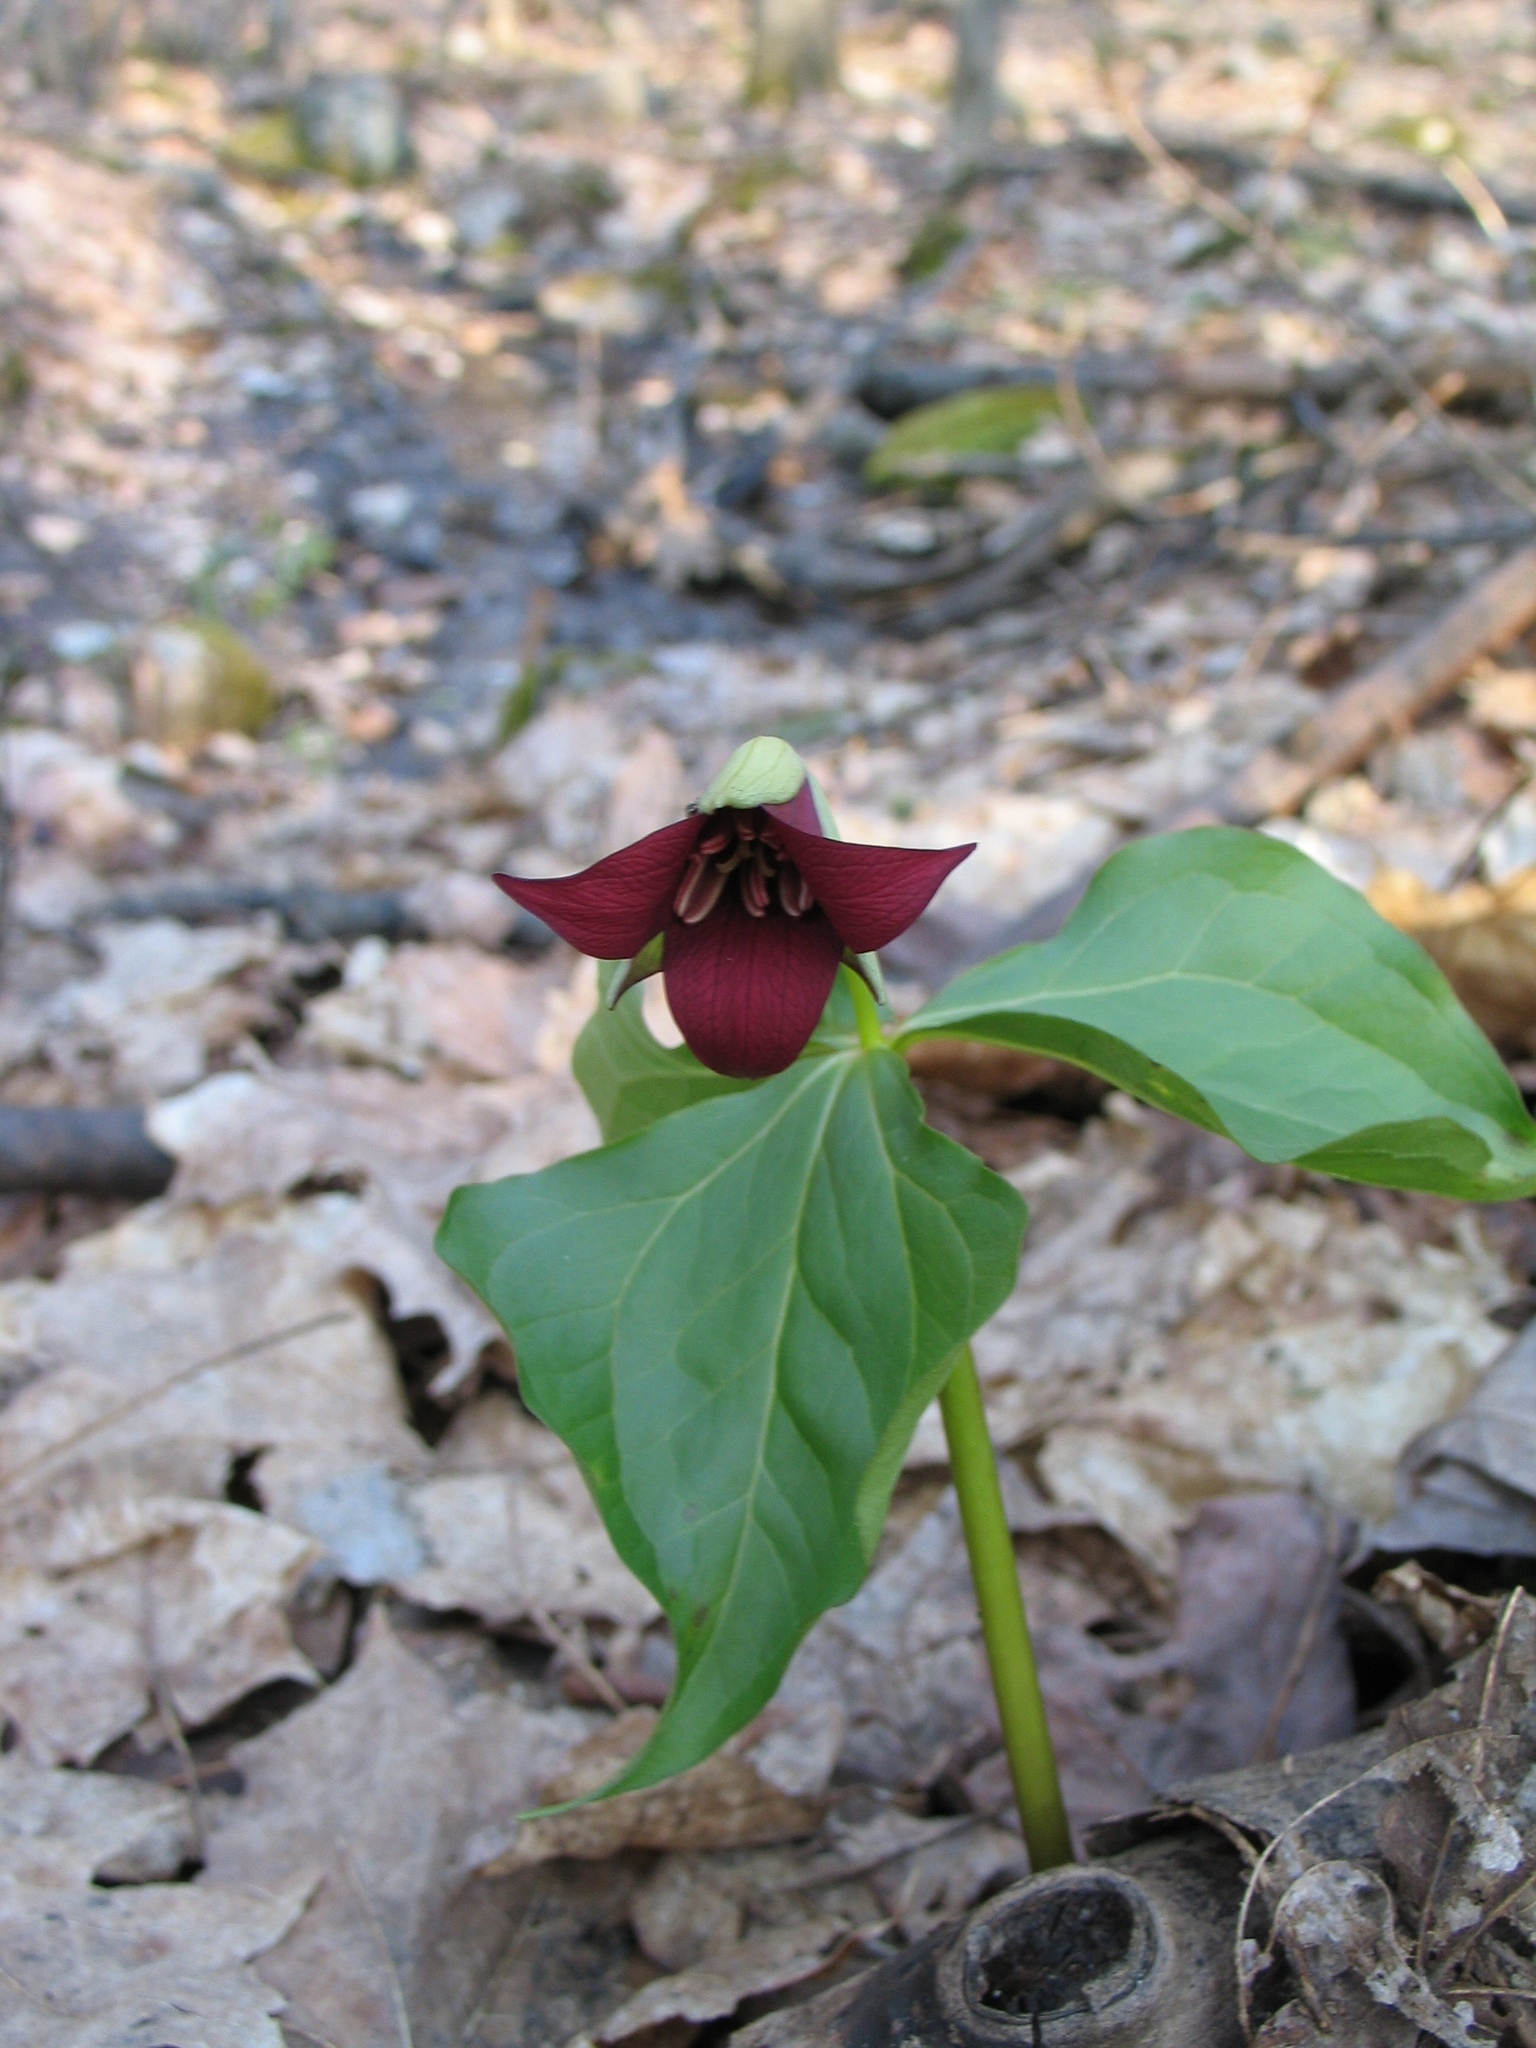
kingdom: Plantae
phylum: Tracheophyta
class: Liliopsida
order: Liliales
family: Melanthiaceae
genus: Trillium
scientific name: Trillium erectum
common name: Purple trillium
